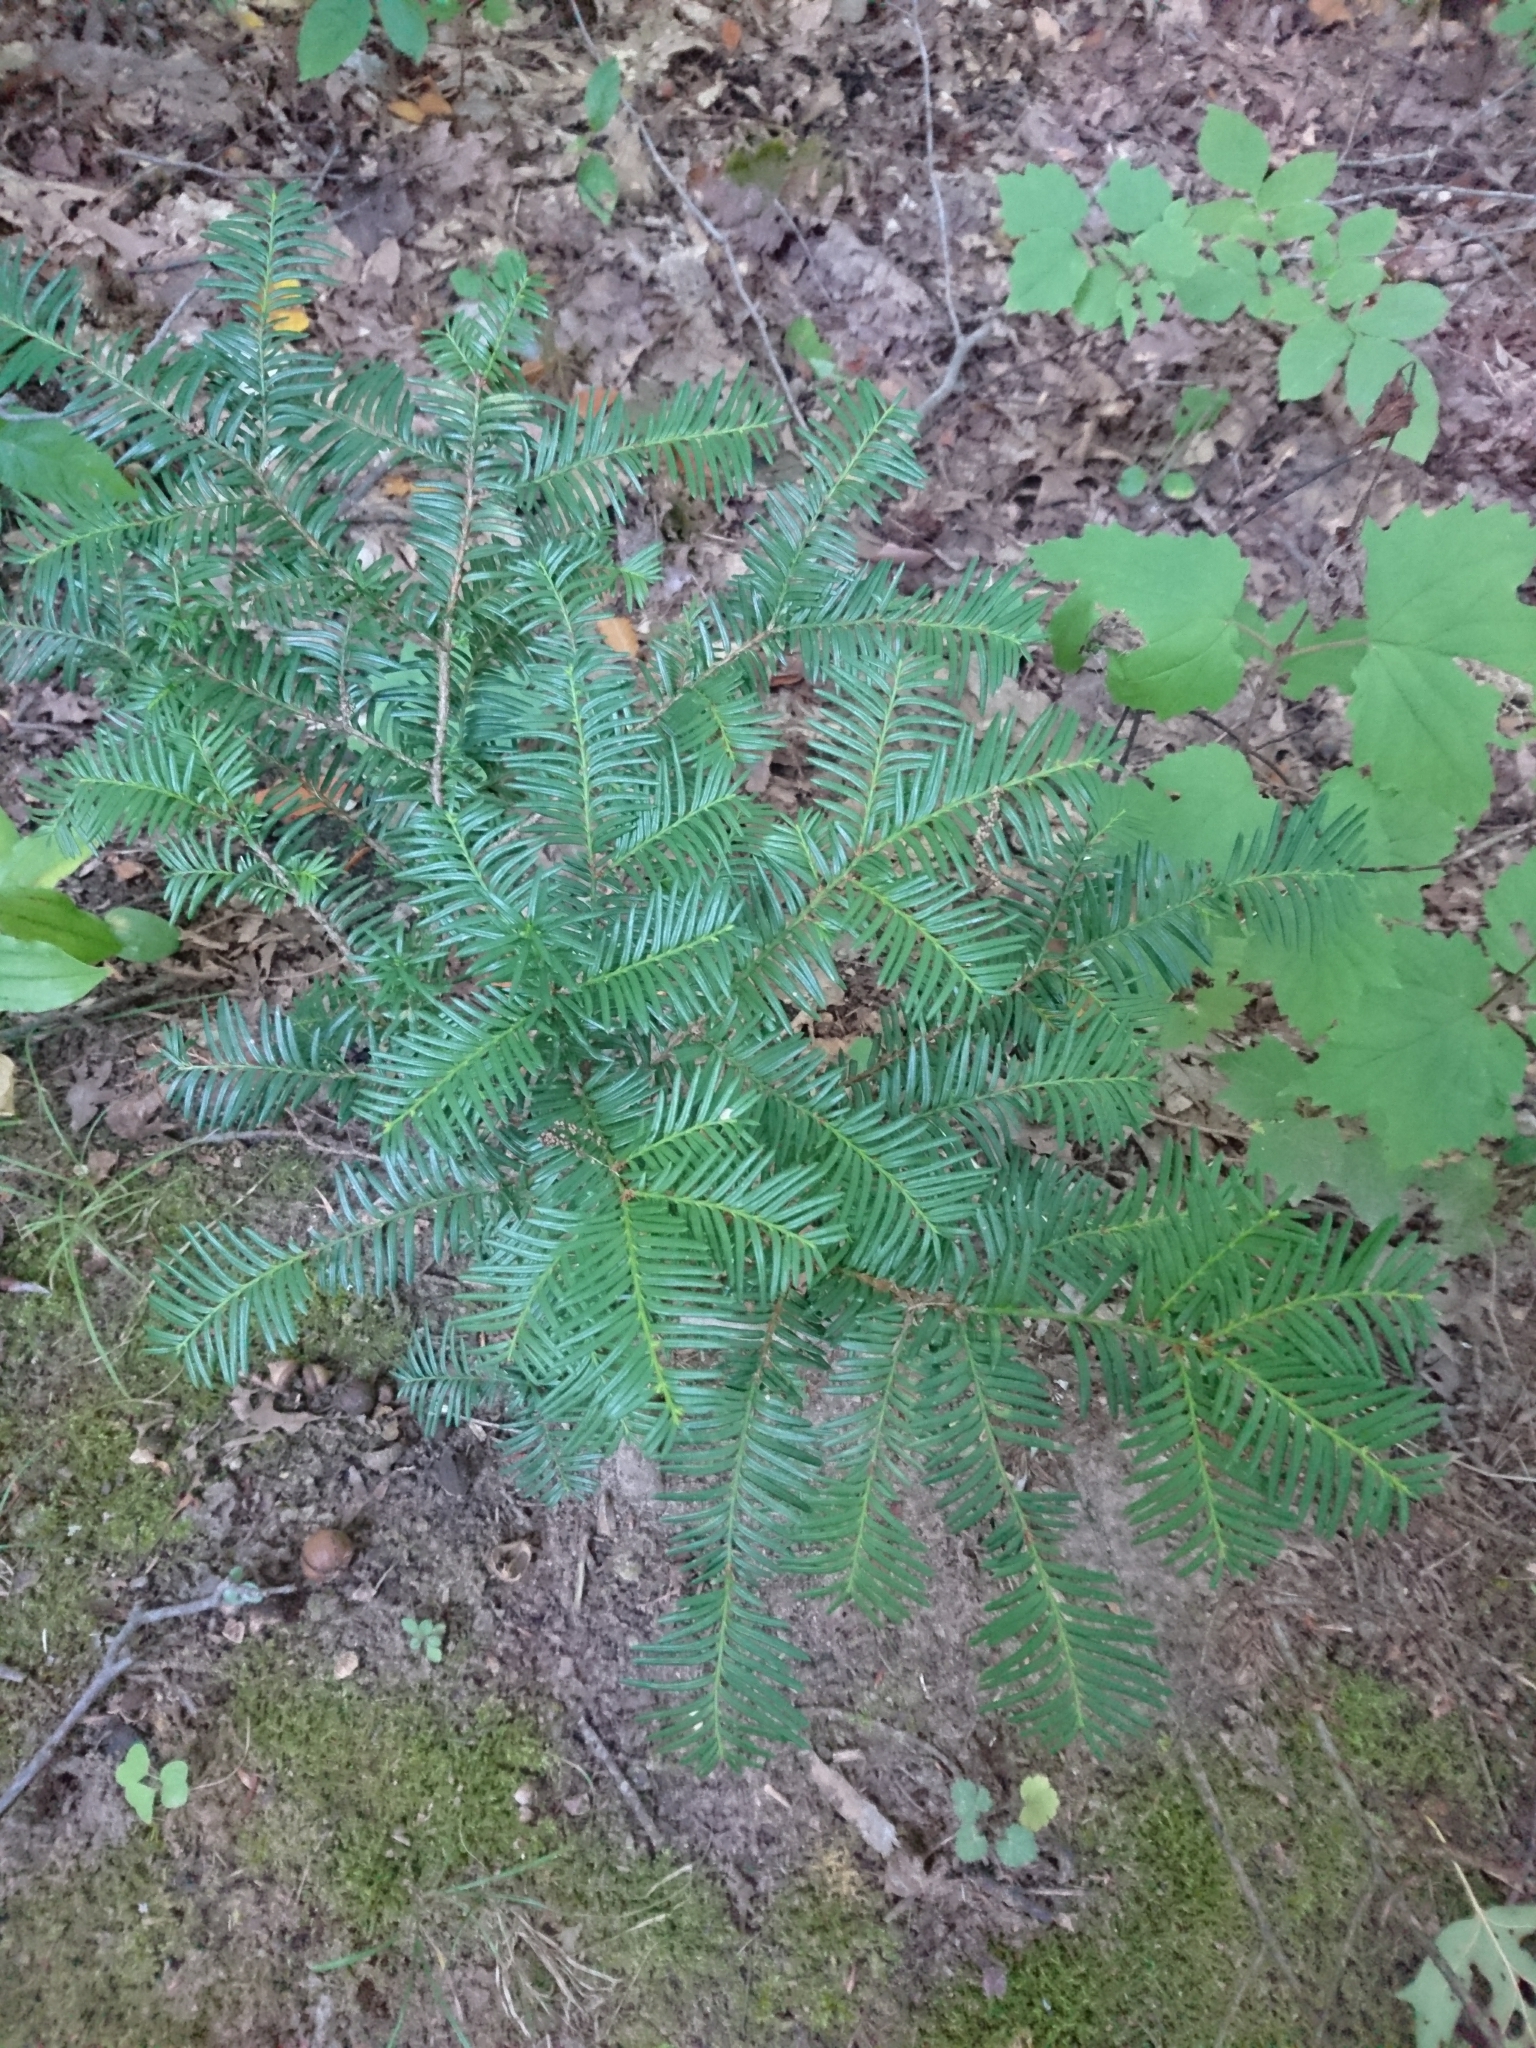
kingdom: Plantae
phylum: Tracheophyta
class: Pinopsida
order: Pinales
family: Pinaceae
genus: Abies
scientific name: Abies balsamea
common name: Balsam fir
